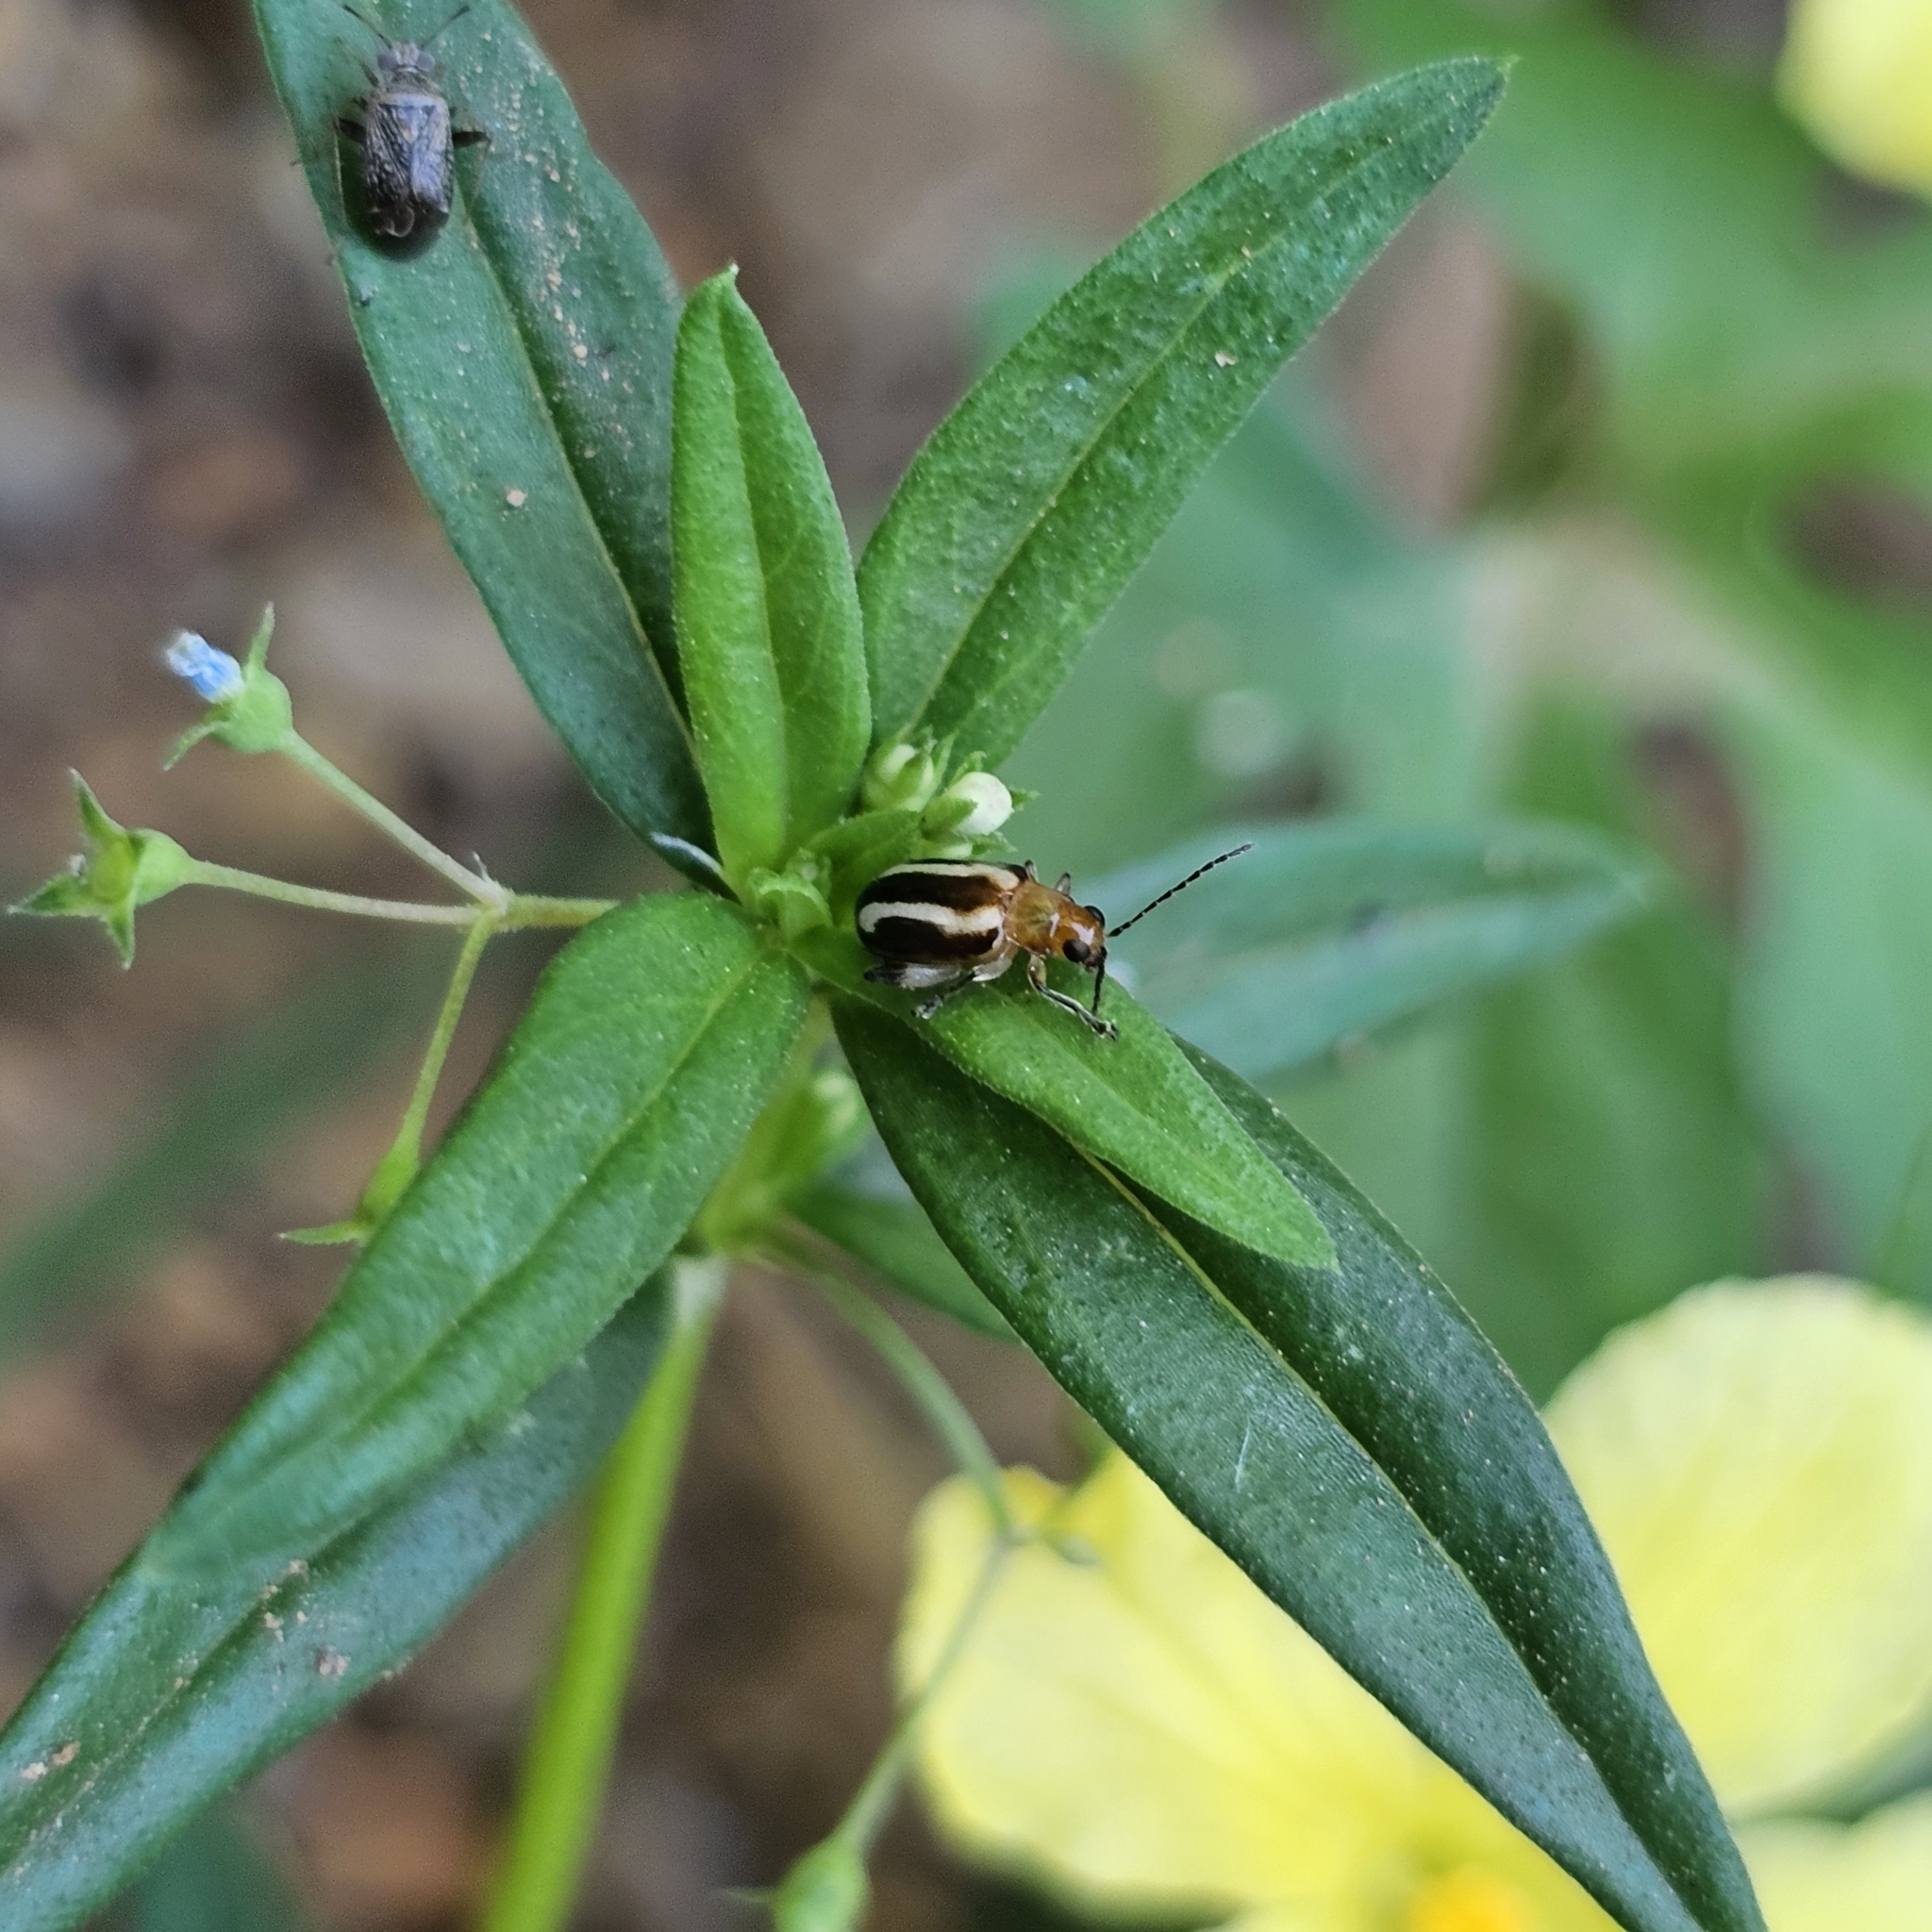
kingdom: Animalia
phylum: Arthropoda
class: Insecta
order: Coleoptera
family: Chrysomelidae
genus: Systena
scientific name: Systena s-littera
